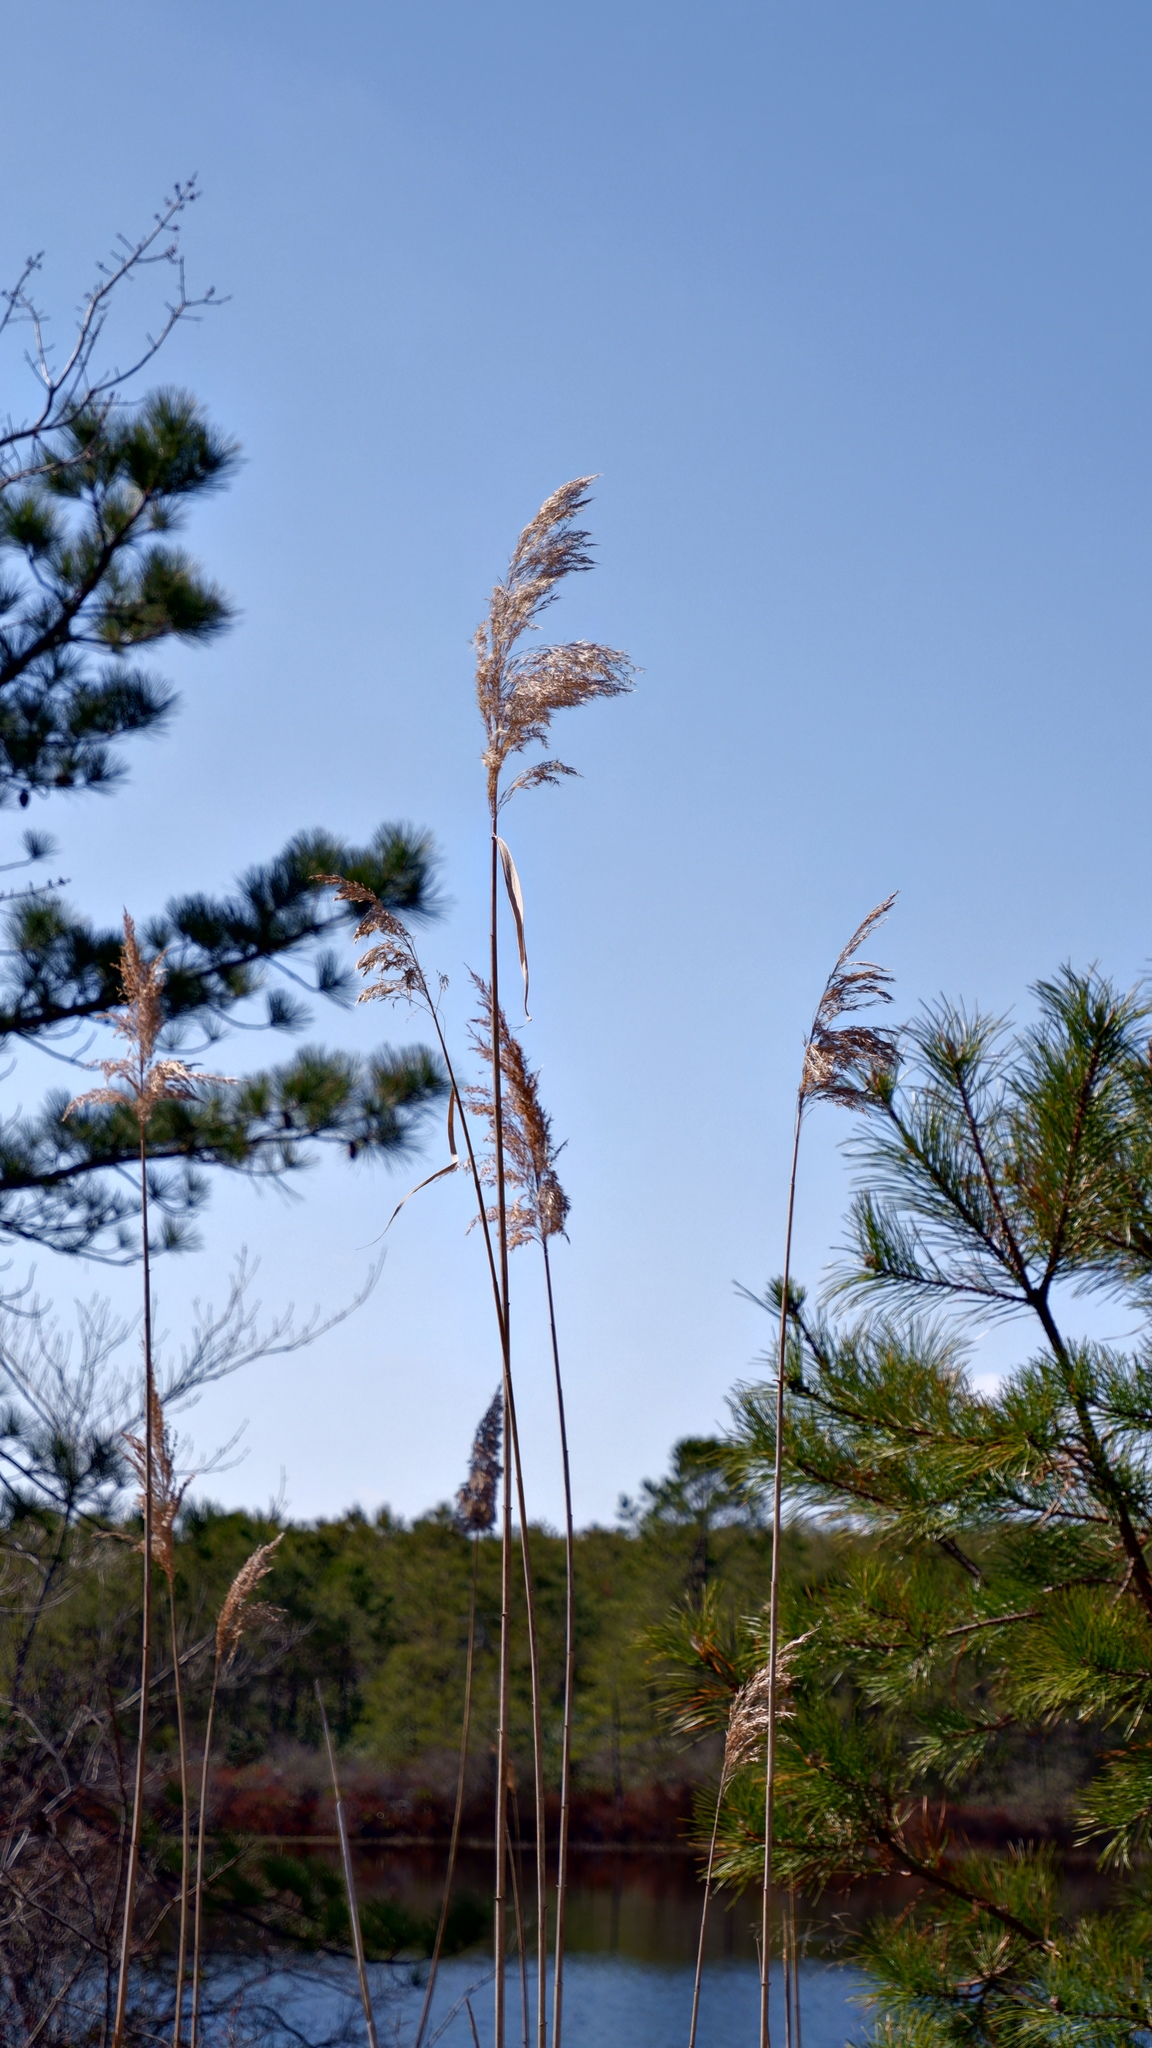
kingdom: Plantae
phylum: Tracheophyta
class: Liliopsida
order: Poales
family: Poaceae
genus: Phragmites
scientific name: Phragmites australis
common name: Common reed
